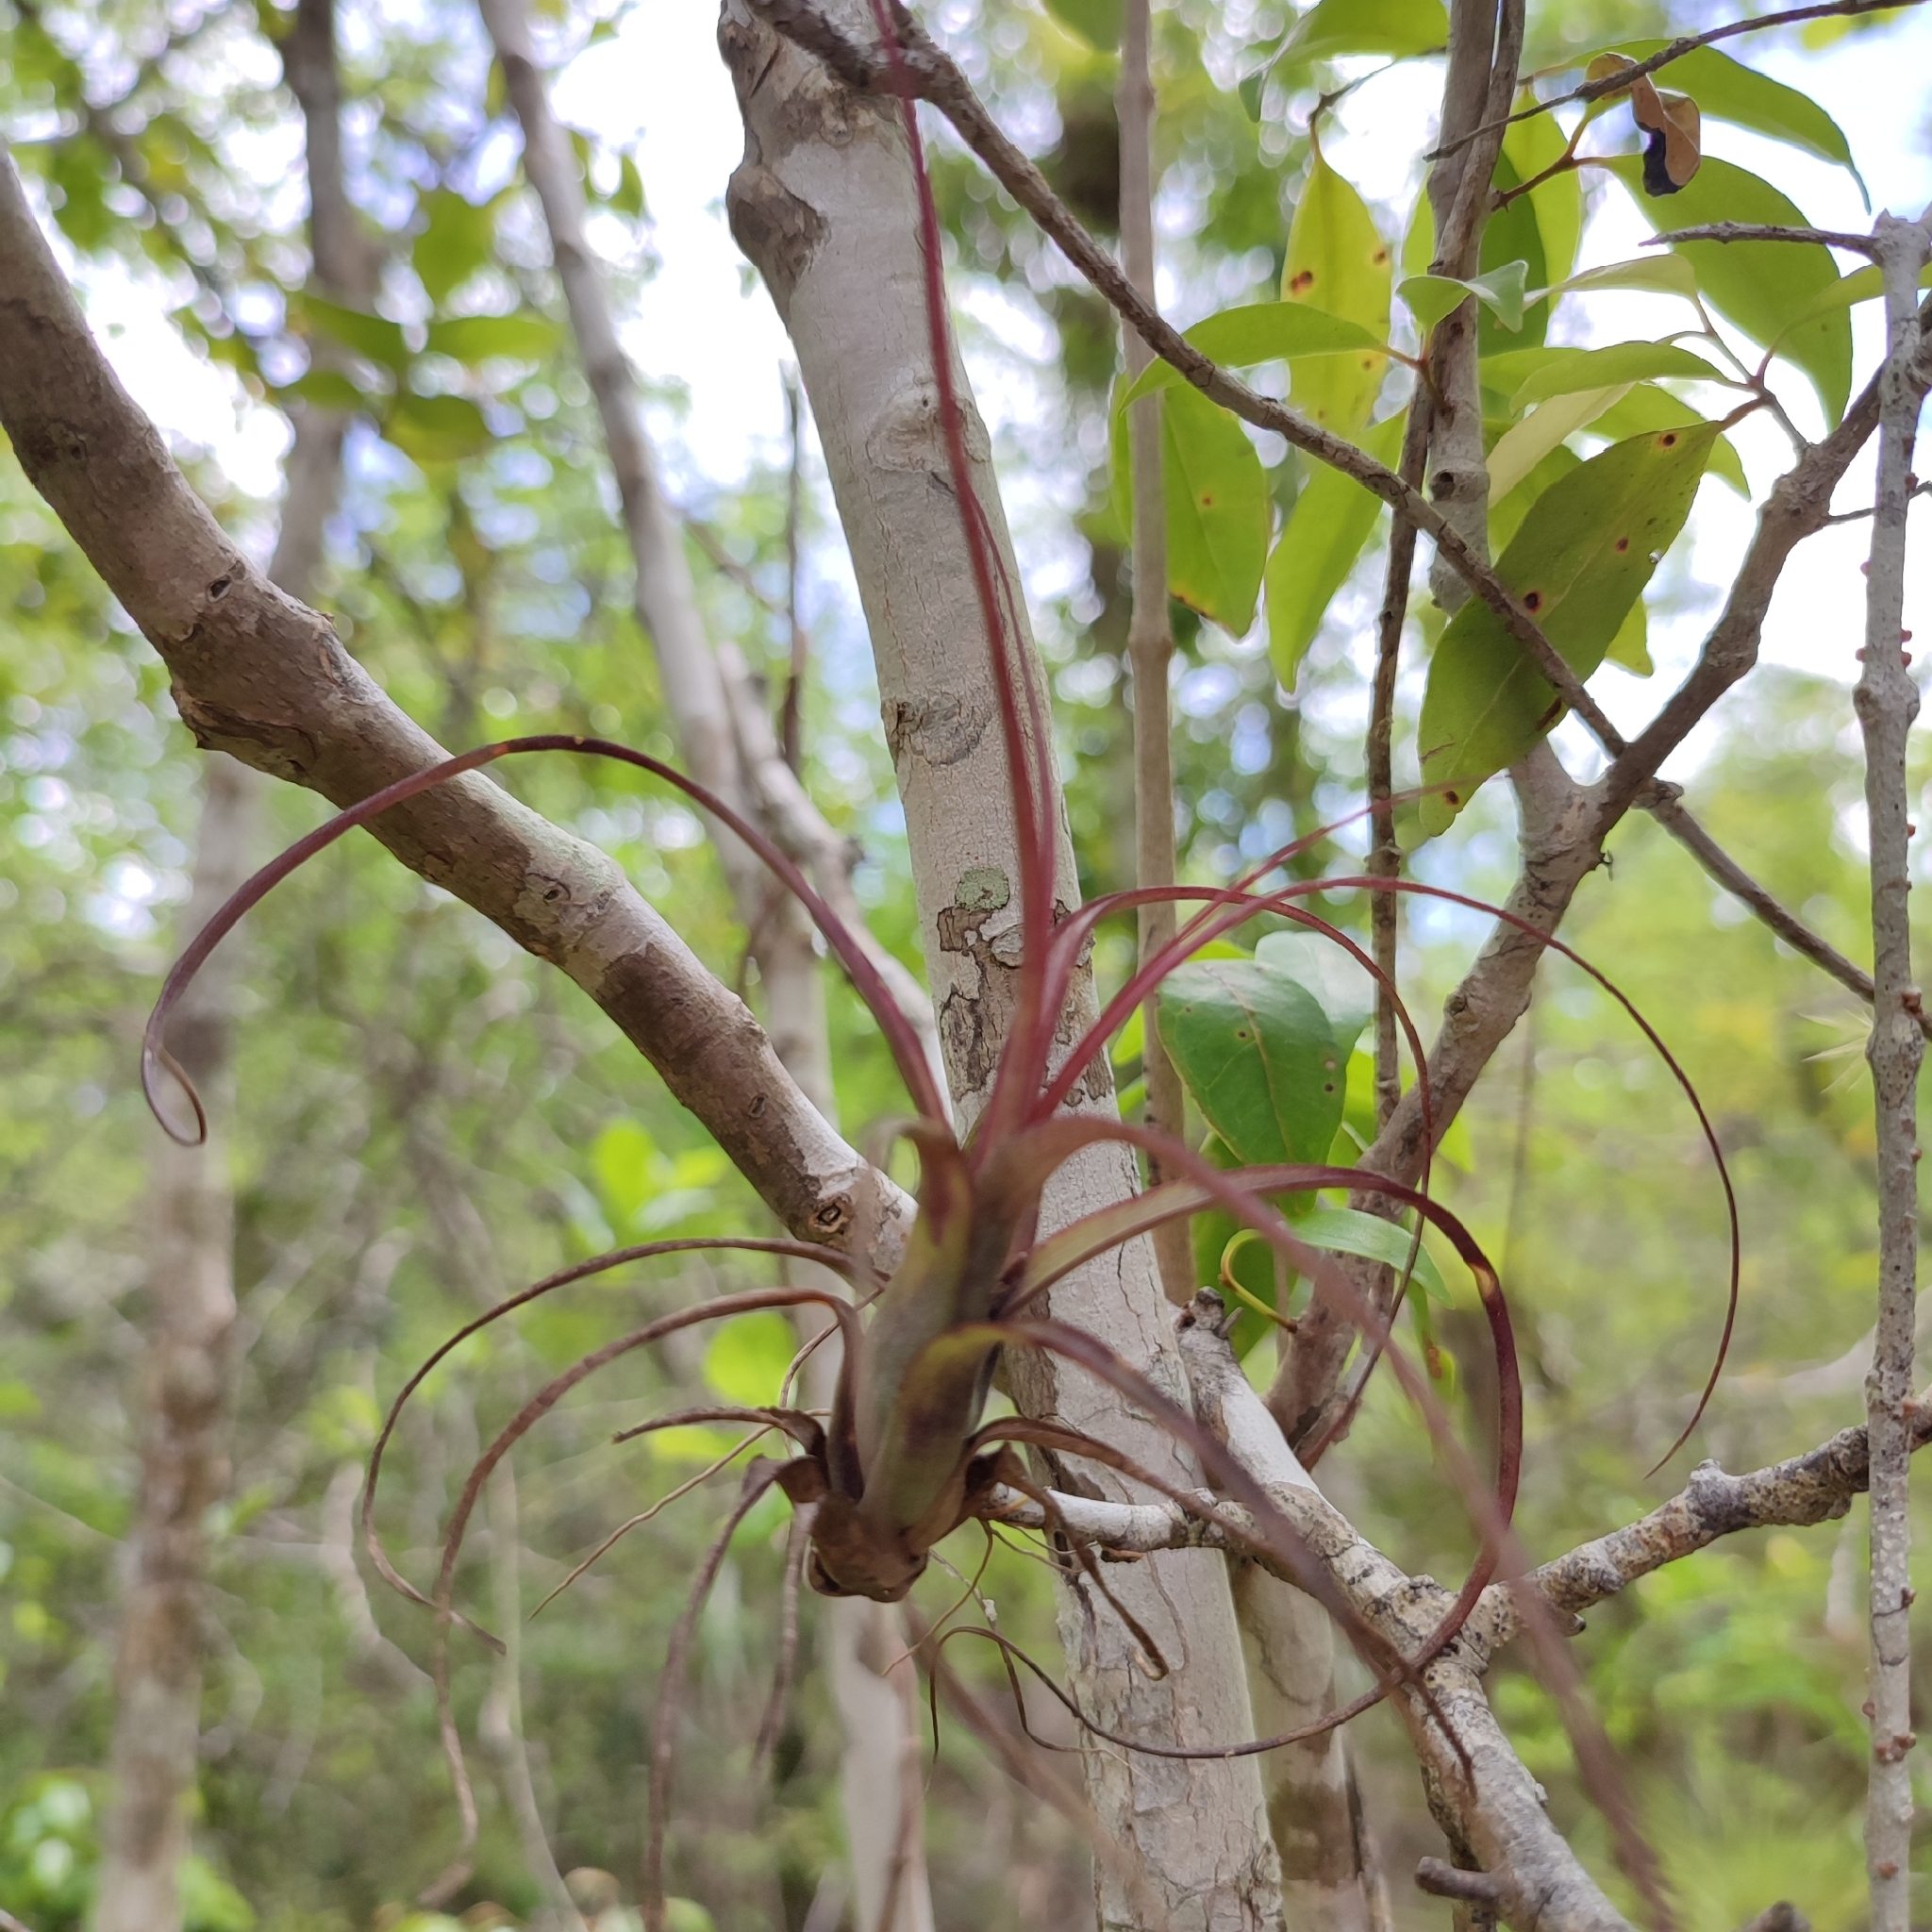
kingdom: Plantae
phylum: Tracheophyta
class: Liliopsida
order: Poales
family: Bromeliaceae
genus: Tillandsia
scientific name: Tillandsia balbisiana
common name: Northern needleleaf
